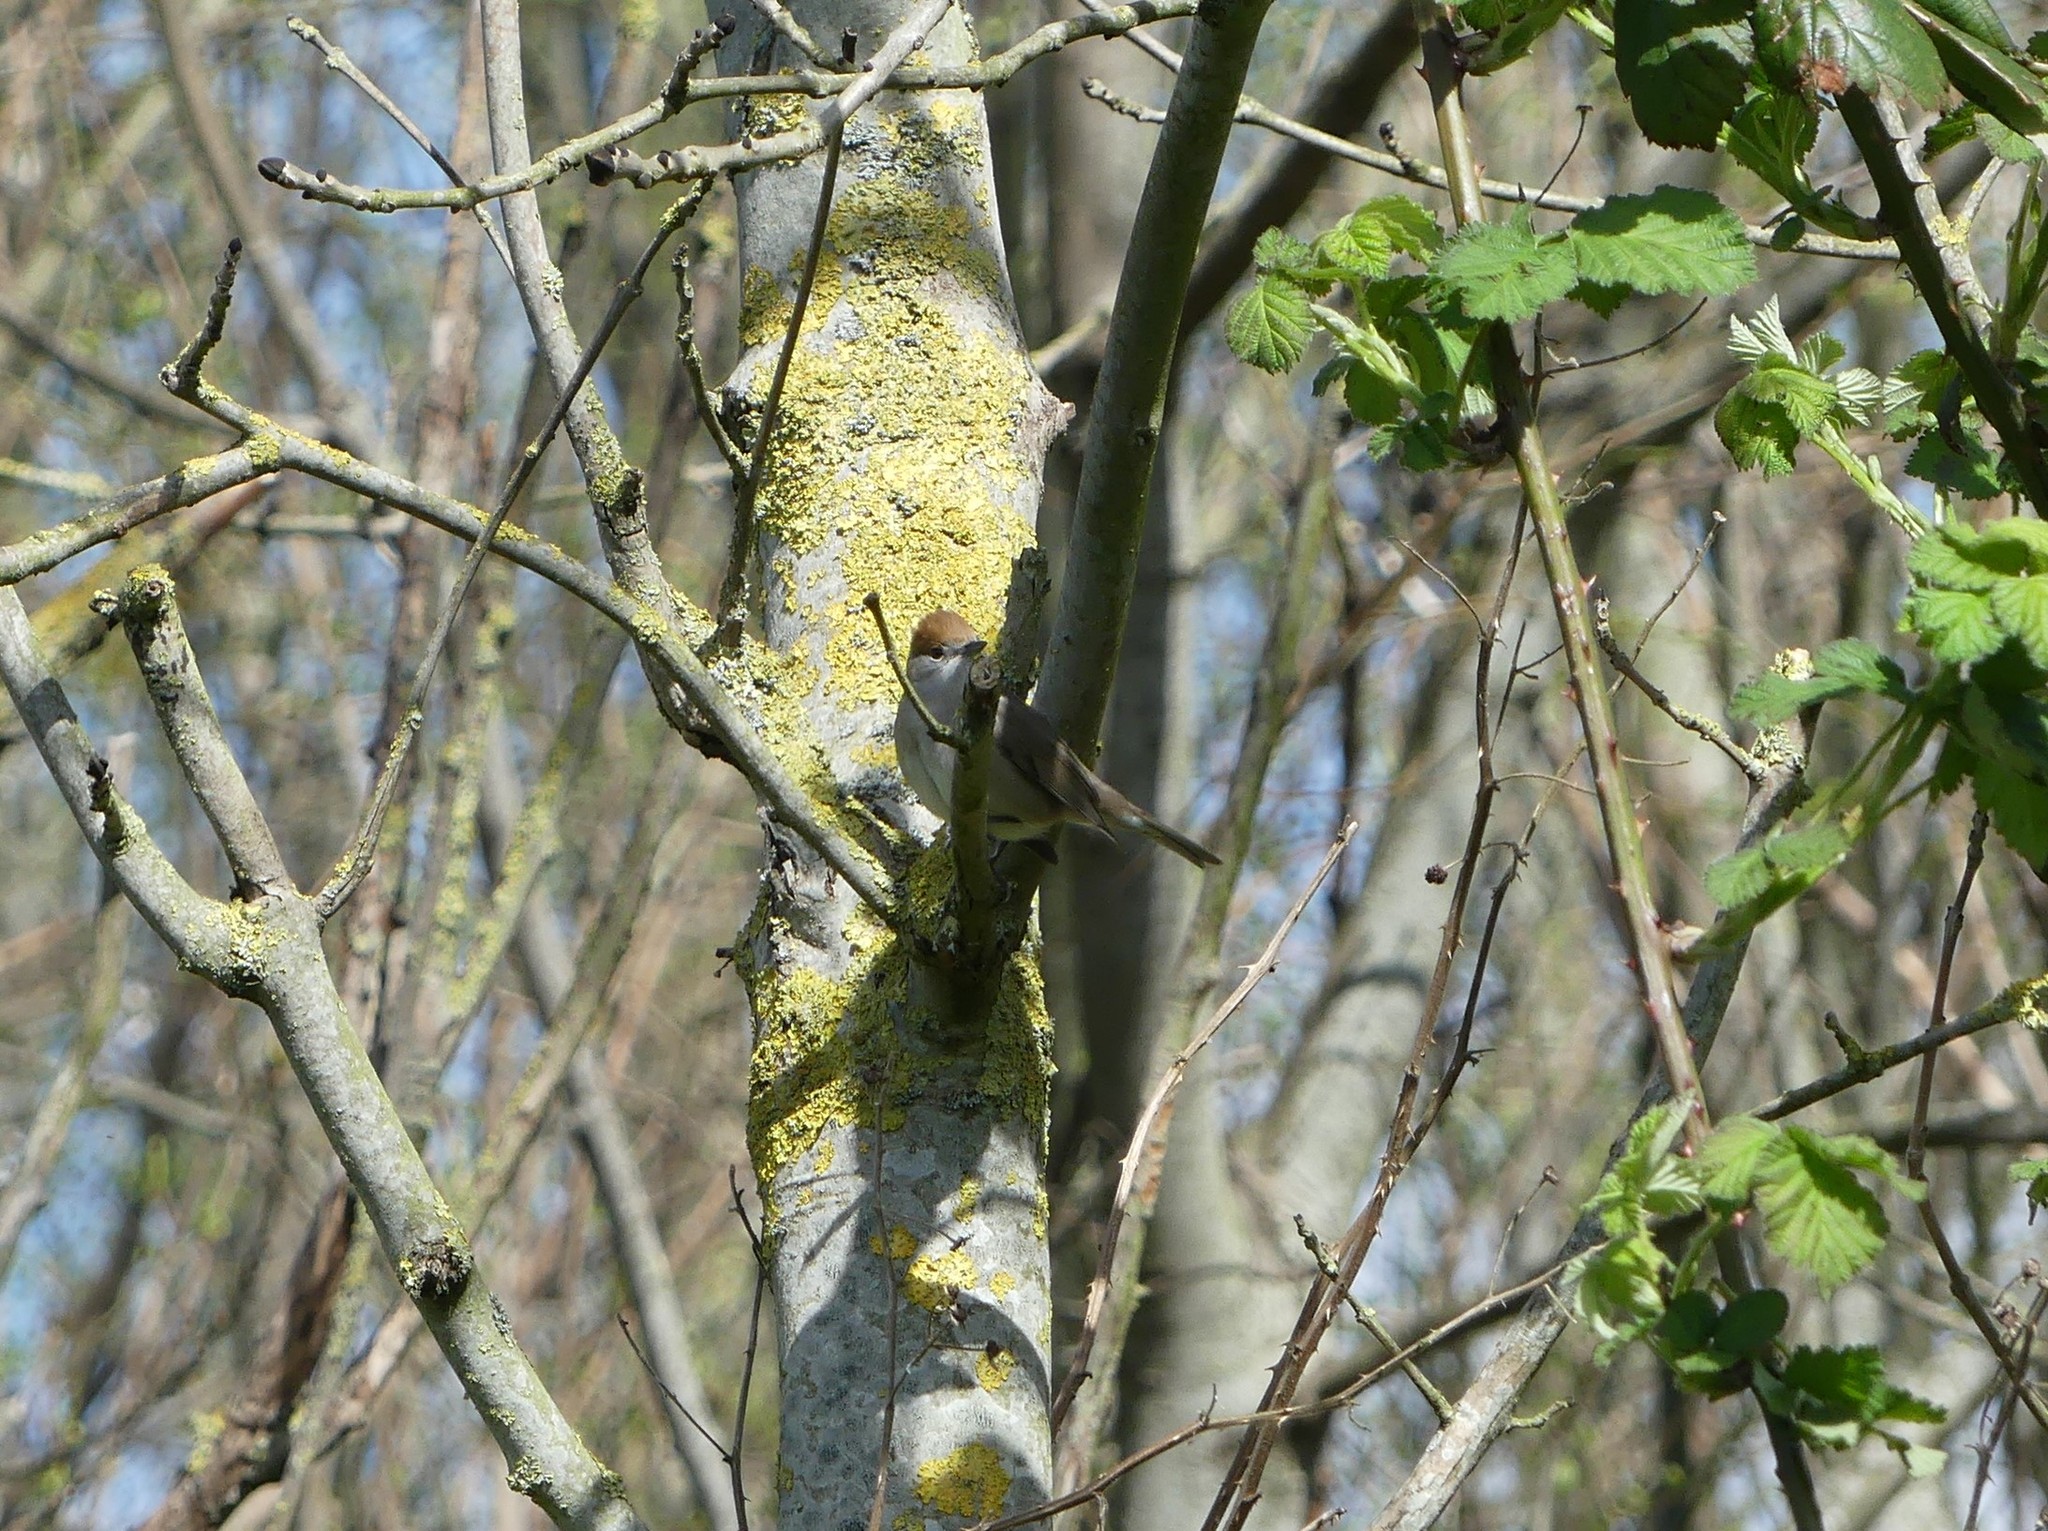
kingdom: Animalia
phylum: Chordata
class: Aves
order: Passeriformes
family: Sylviidae
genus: Sylvia
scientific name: Sylvia atricapilla
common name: Eurasian blackcap
